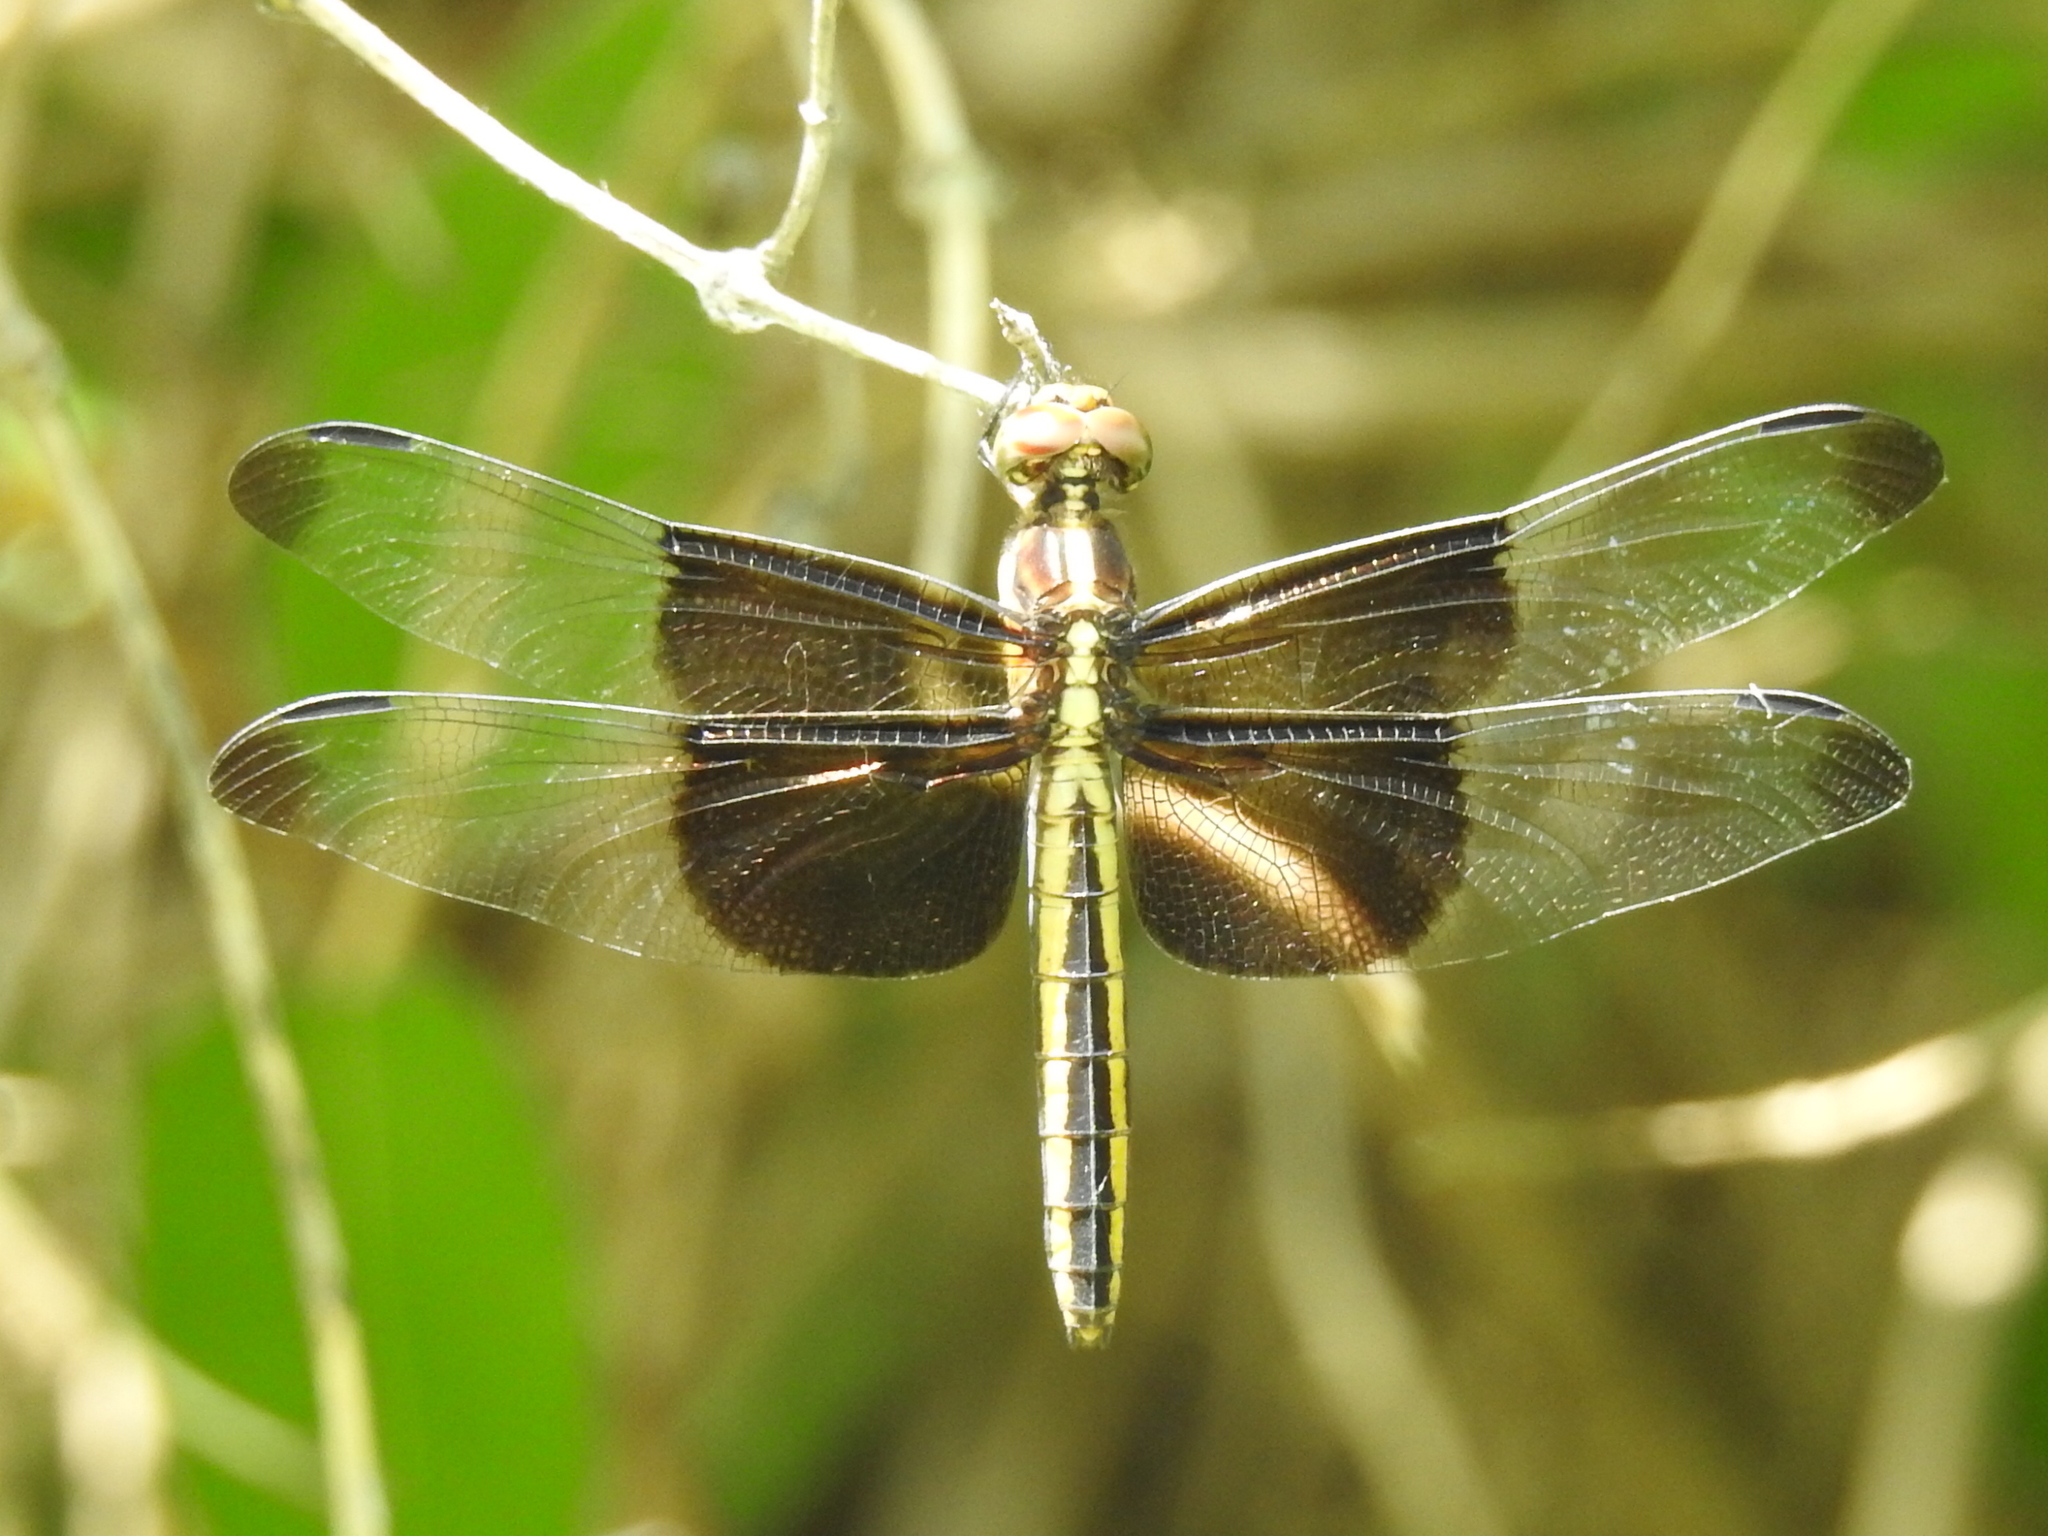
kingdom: Animalia
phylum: Arthropoda
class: Insecta
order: Odonata
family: Libellulidae
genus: Libellula
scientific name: Libellula luctuosa
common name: Widow skimmer
